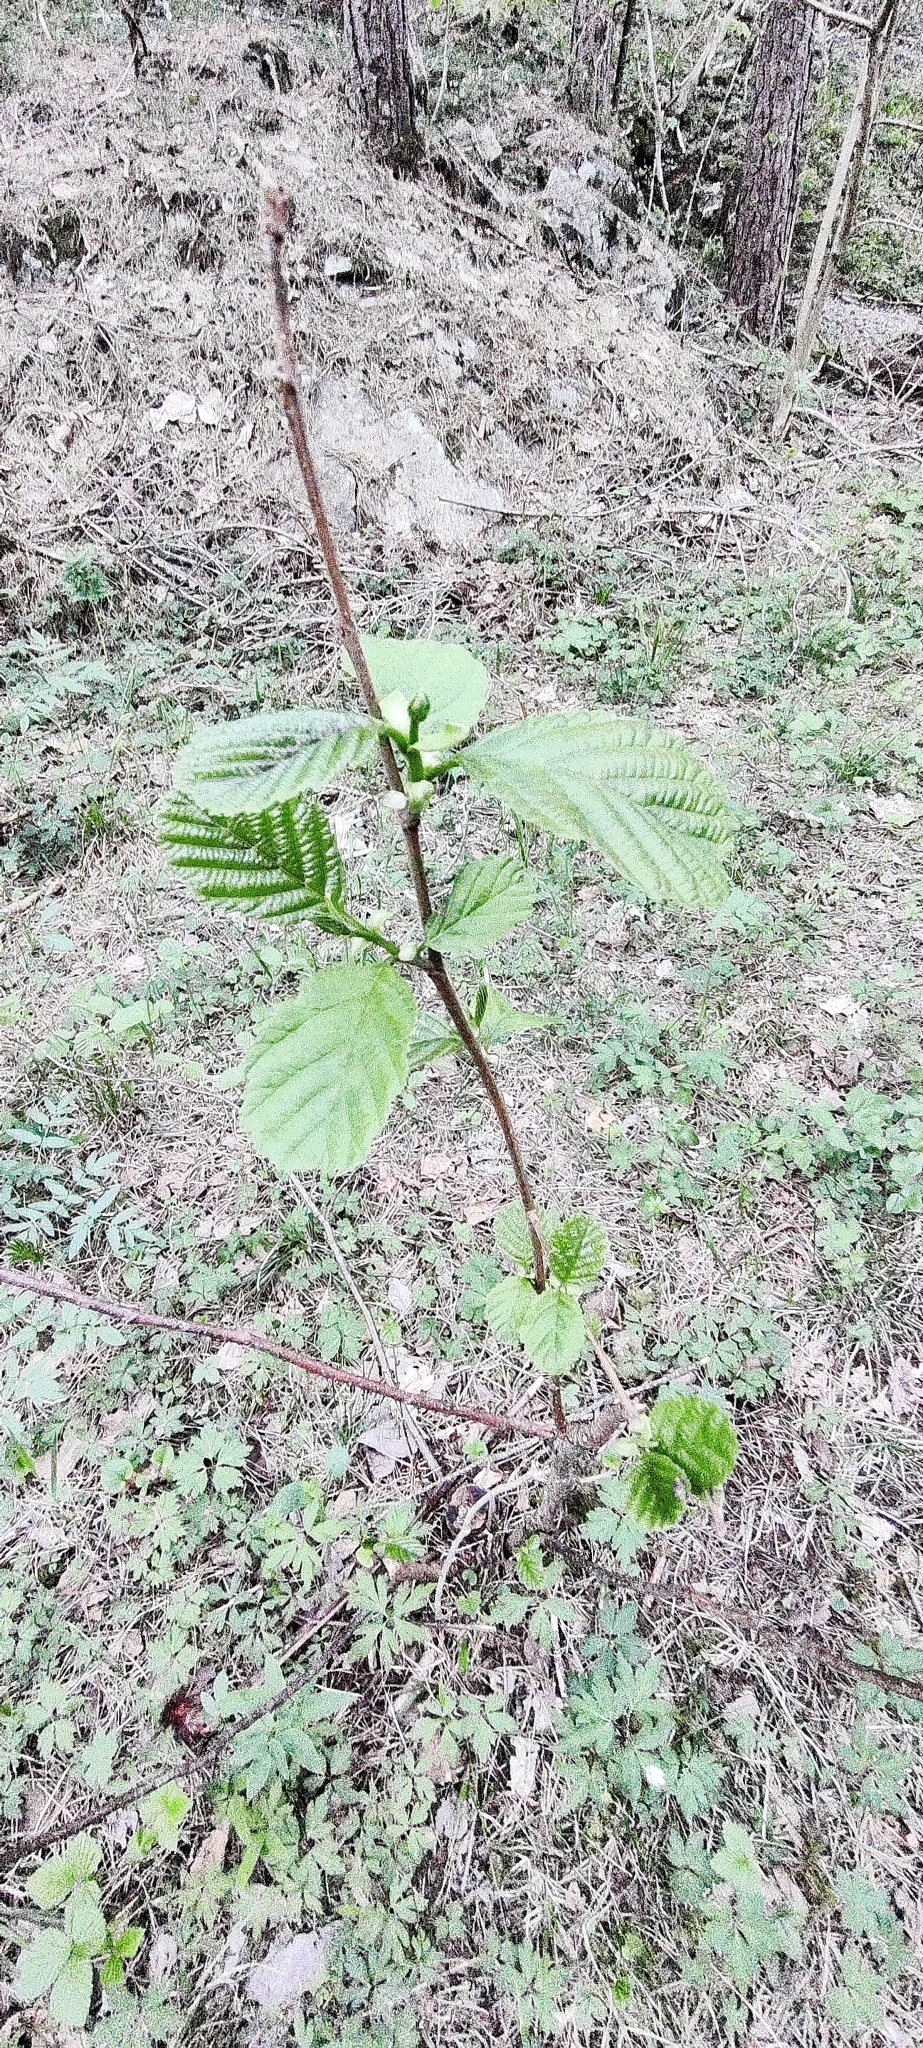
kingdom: Plantae
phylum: Tracheophyta
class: Magnoliopsida
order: Fagales
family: Betulaceae
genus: Alnus
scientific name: Alnus glutinosa
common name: Black alder
